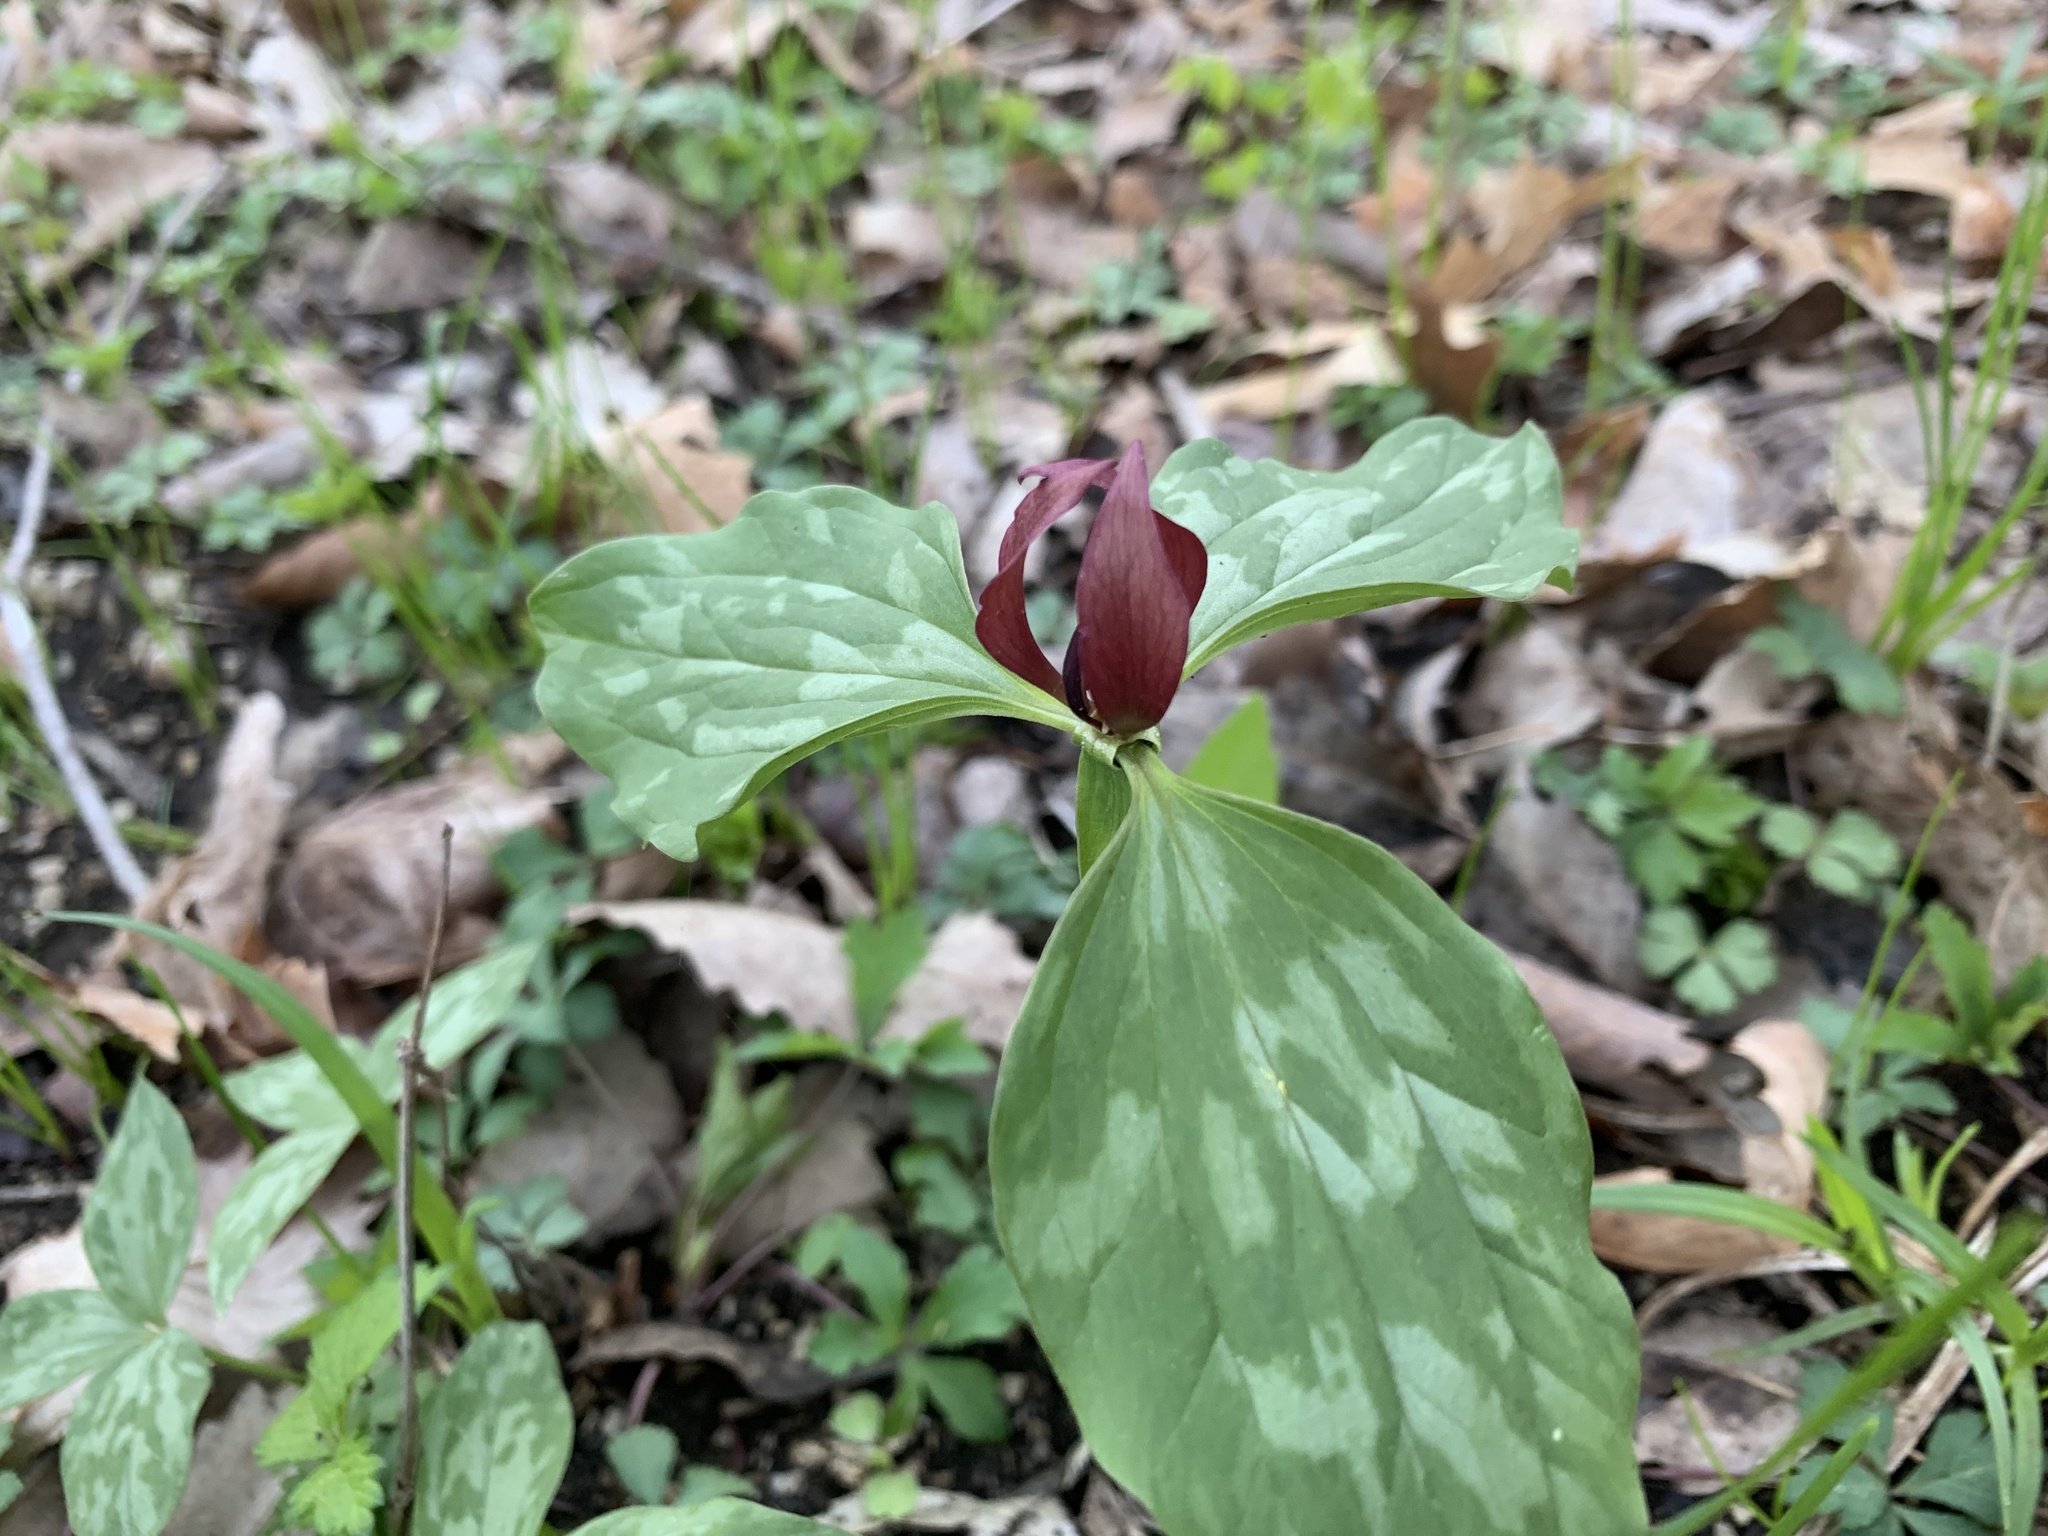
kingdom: Plantae
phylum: Tracheophyta
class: Liliopsida
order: Liliales
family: Melanthiaceae
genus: Trillium
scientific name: Trillium recurvatum
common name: Bloody butcher
